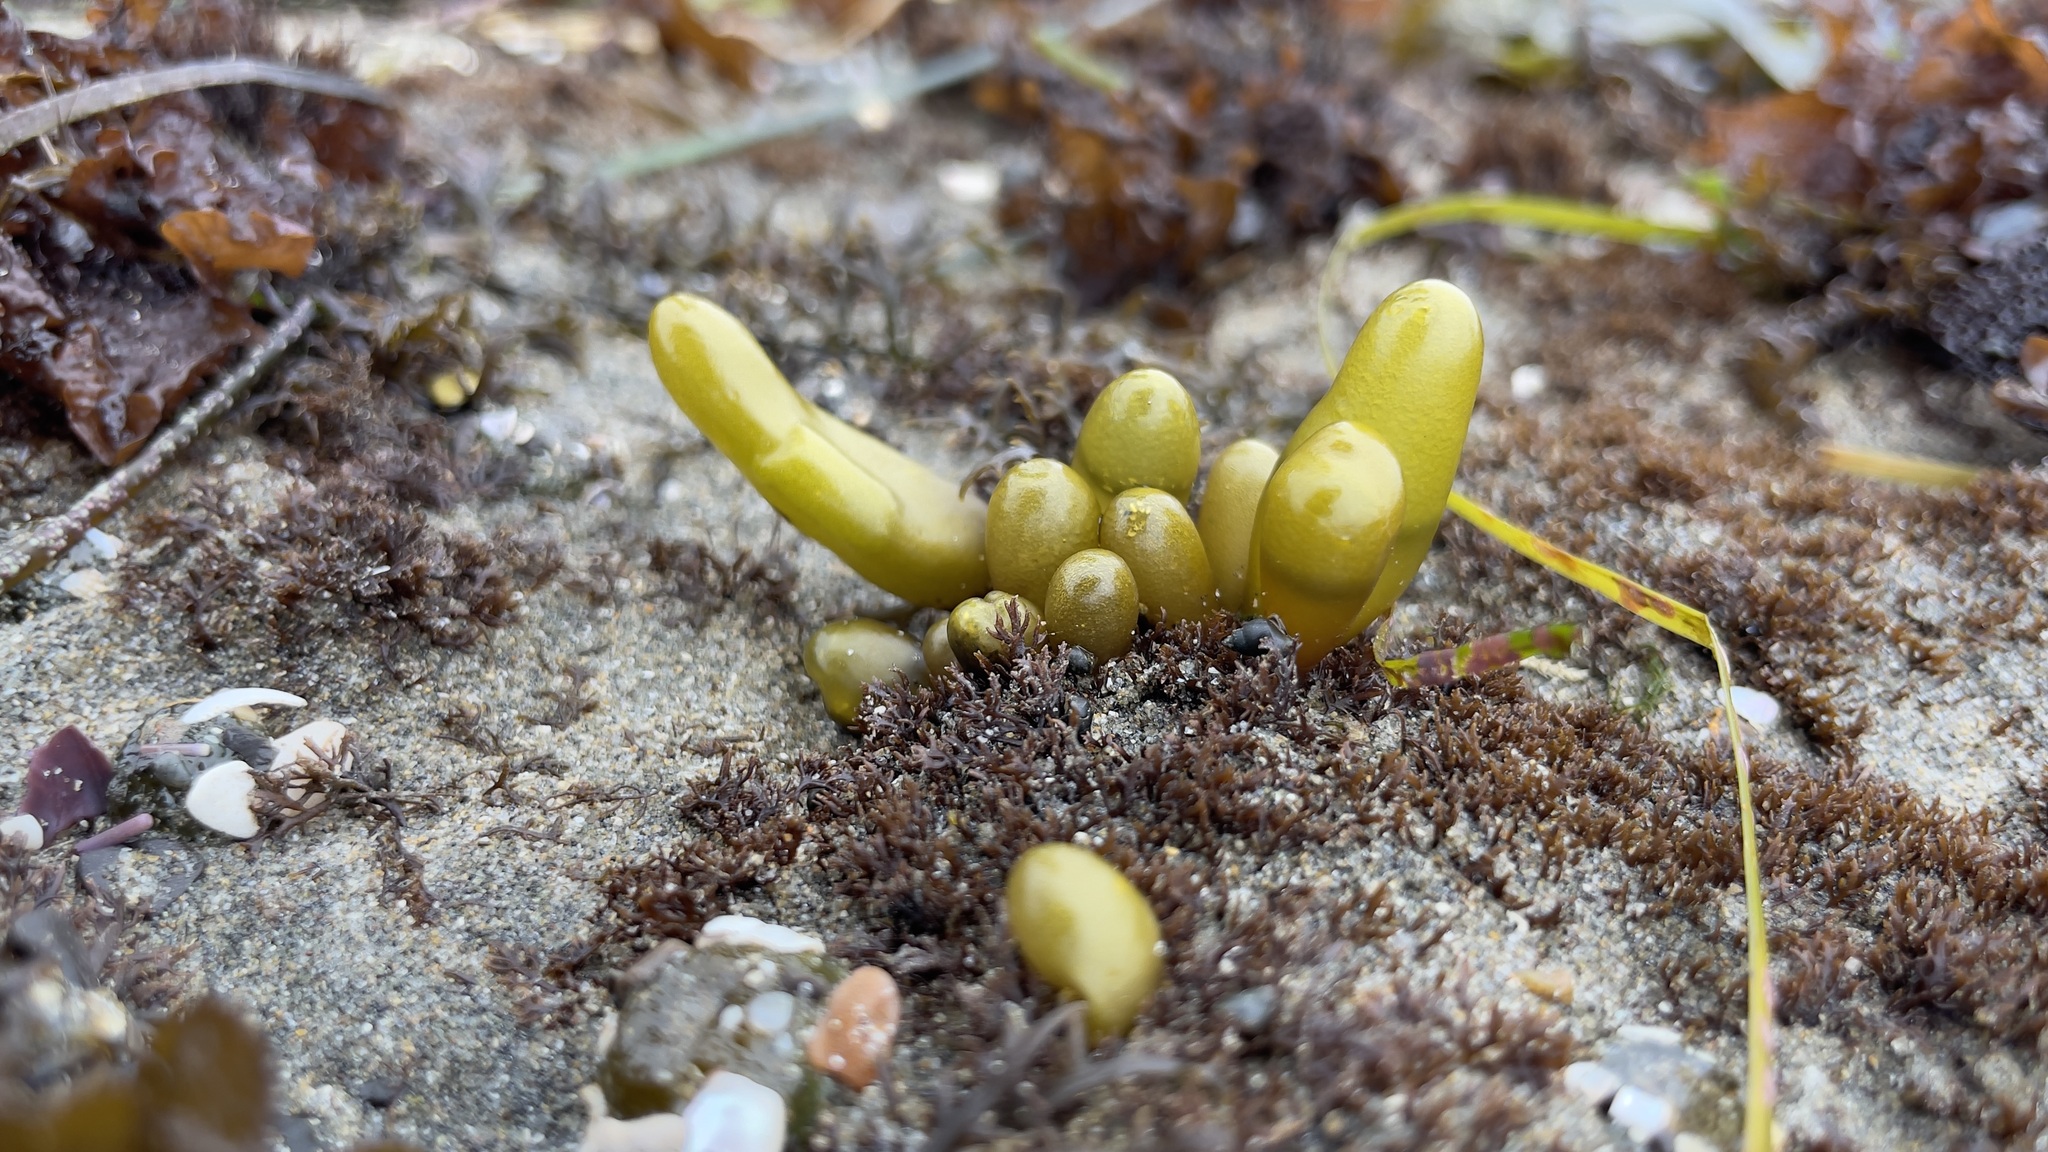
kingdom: Plantae
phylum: Rhodophyta
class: Florideophyceae
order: Palmariales
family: Palmariaceae
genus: Halosaccion
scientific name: Halosaccion glandiforme
